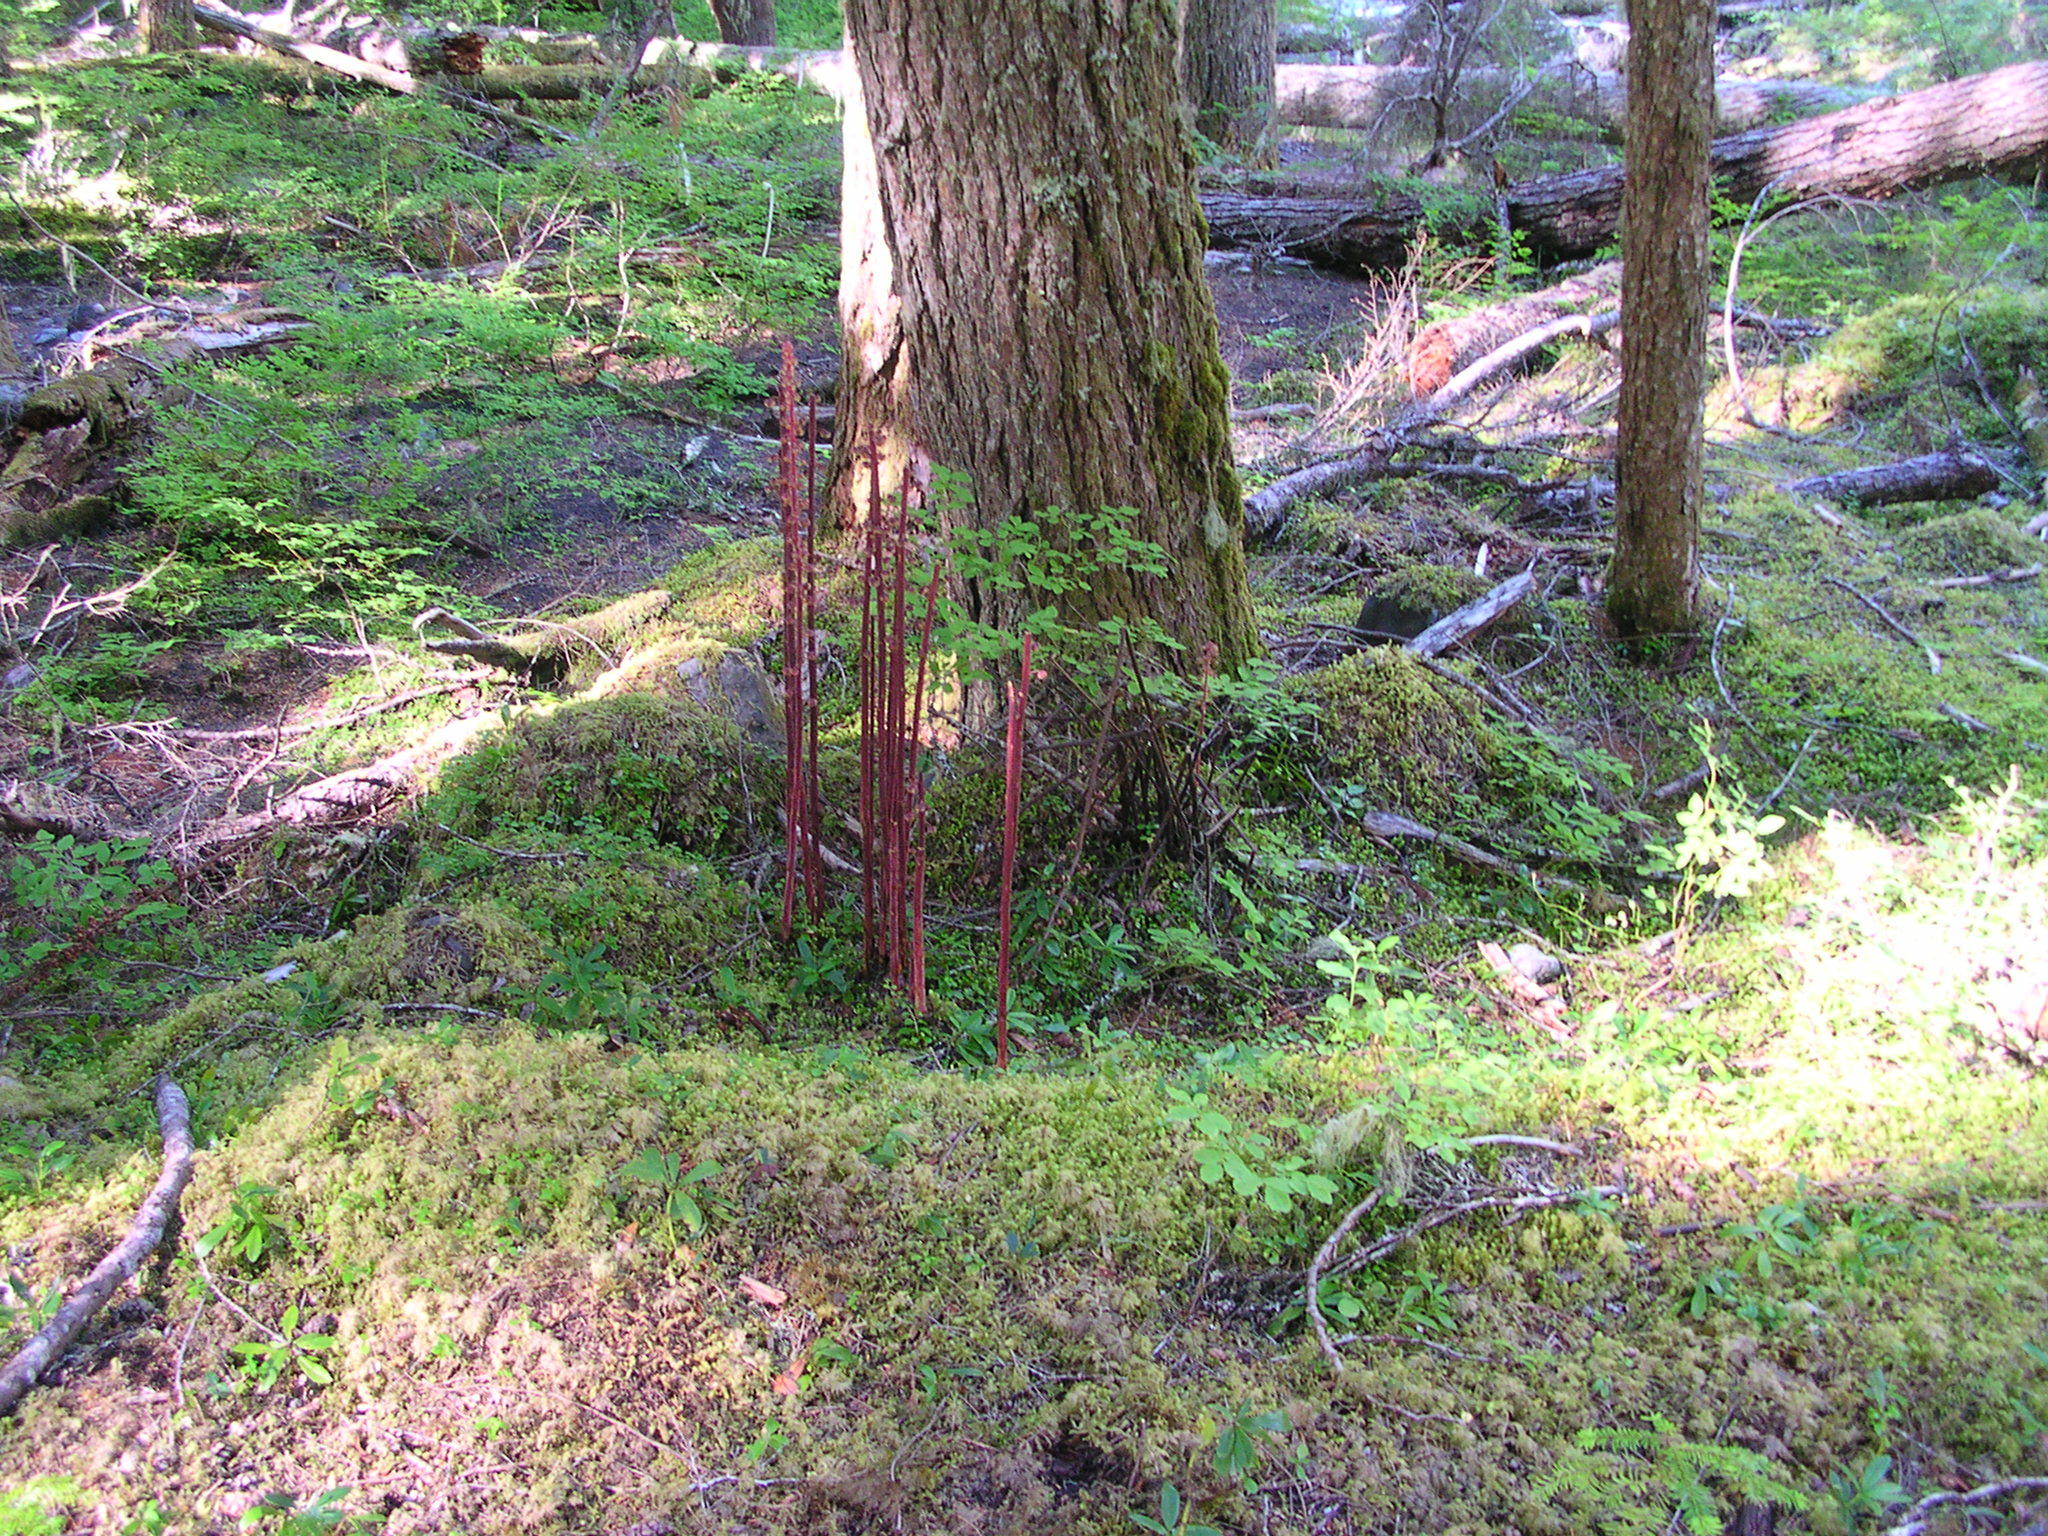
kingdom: Plantae
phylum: Tracheophyta
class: Magnoliopsida
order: Ericales
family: Ericaceae
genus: Pterospora
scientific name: Pterospora andromedea
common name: Giant bird's-nest
